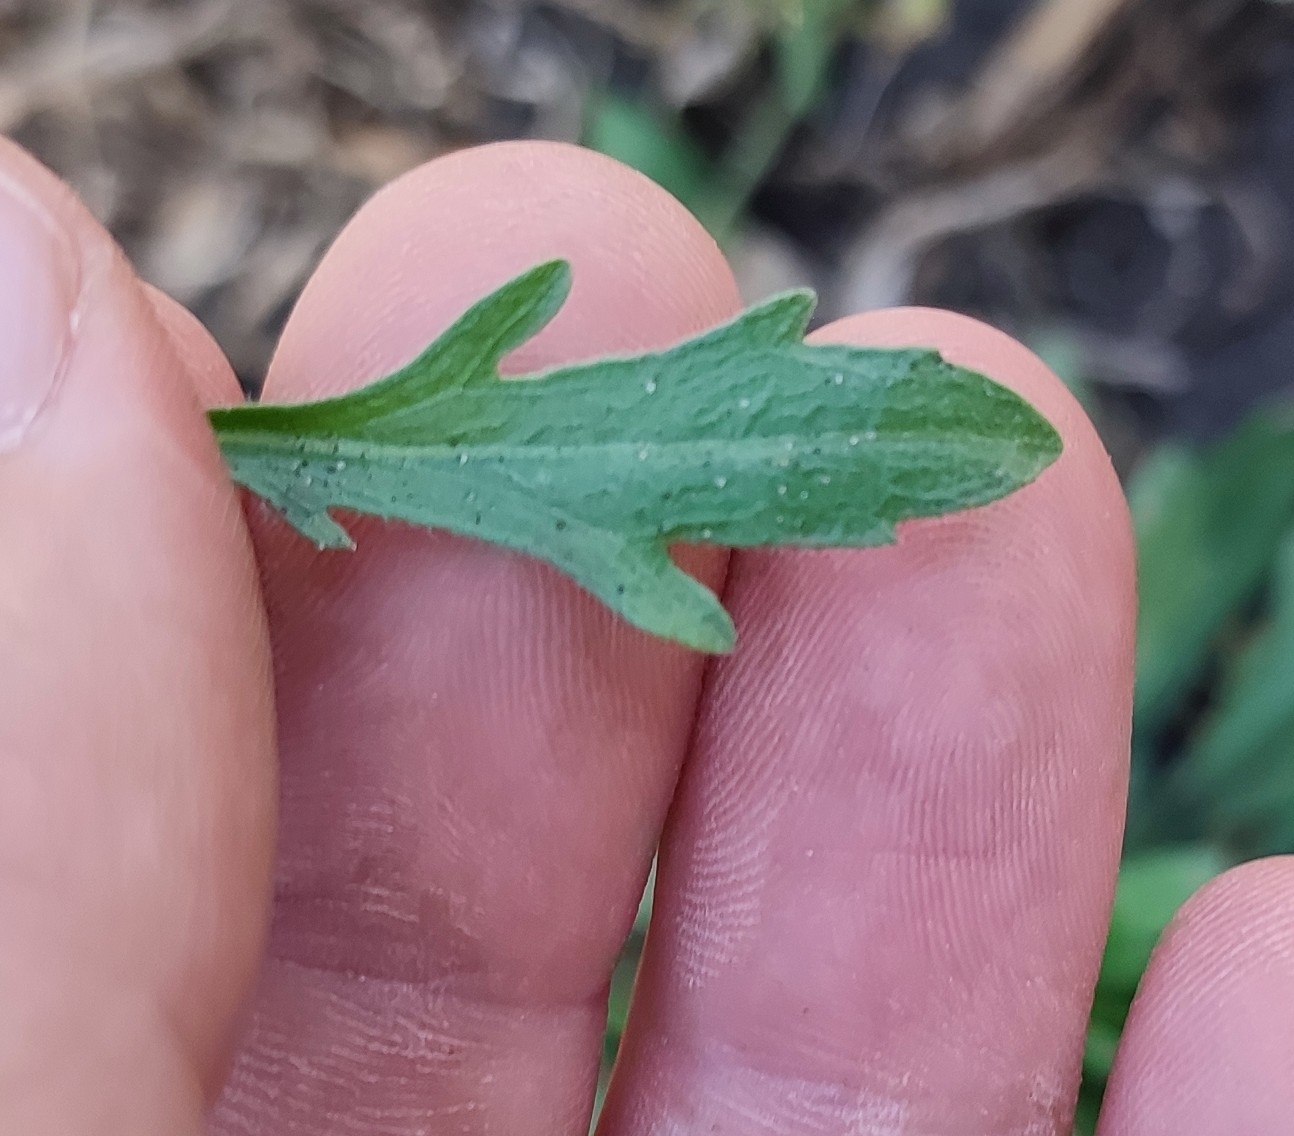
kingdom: Plantae
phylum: Tracheophyta
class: Magnoliopsida
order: Asterales
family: Asteraceae
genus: Erigeron
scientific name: Erigeron canadensis
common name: Canadian fleabane
